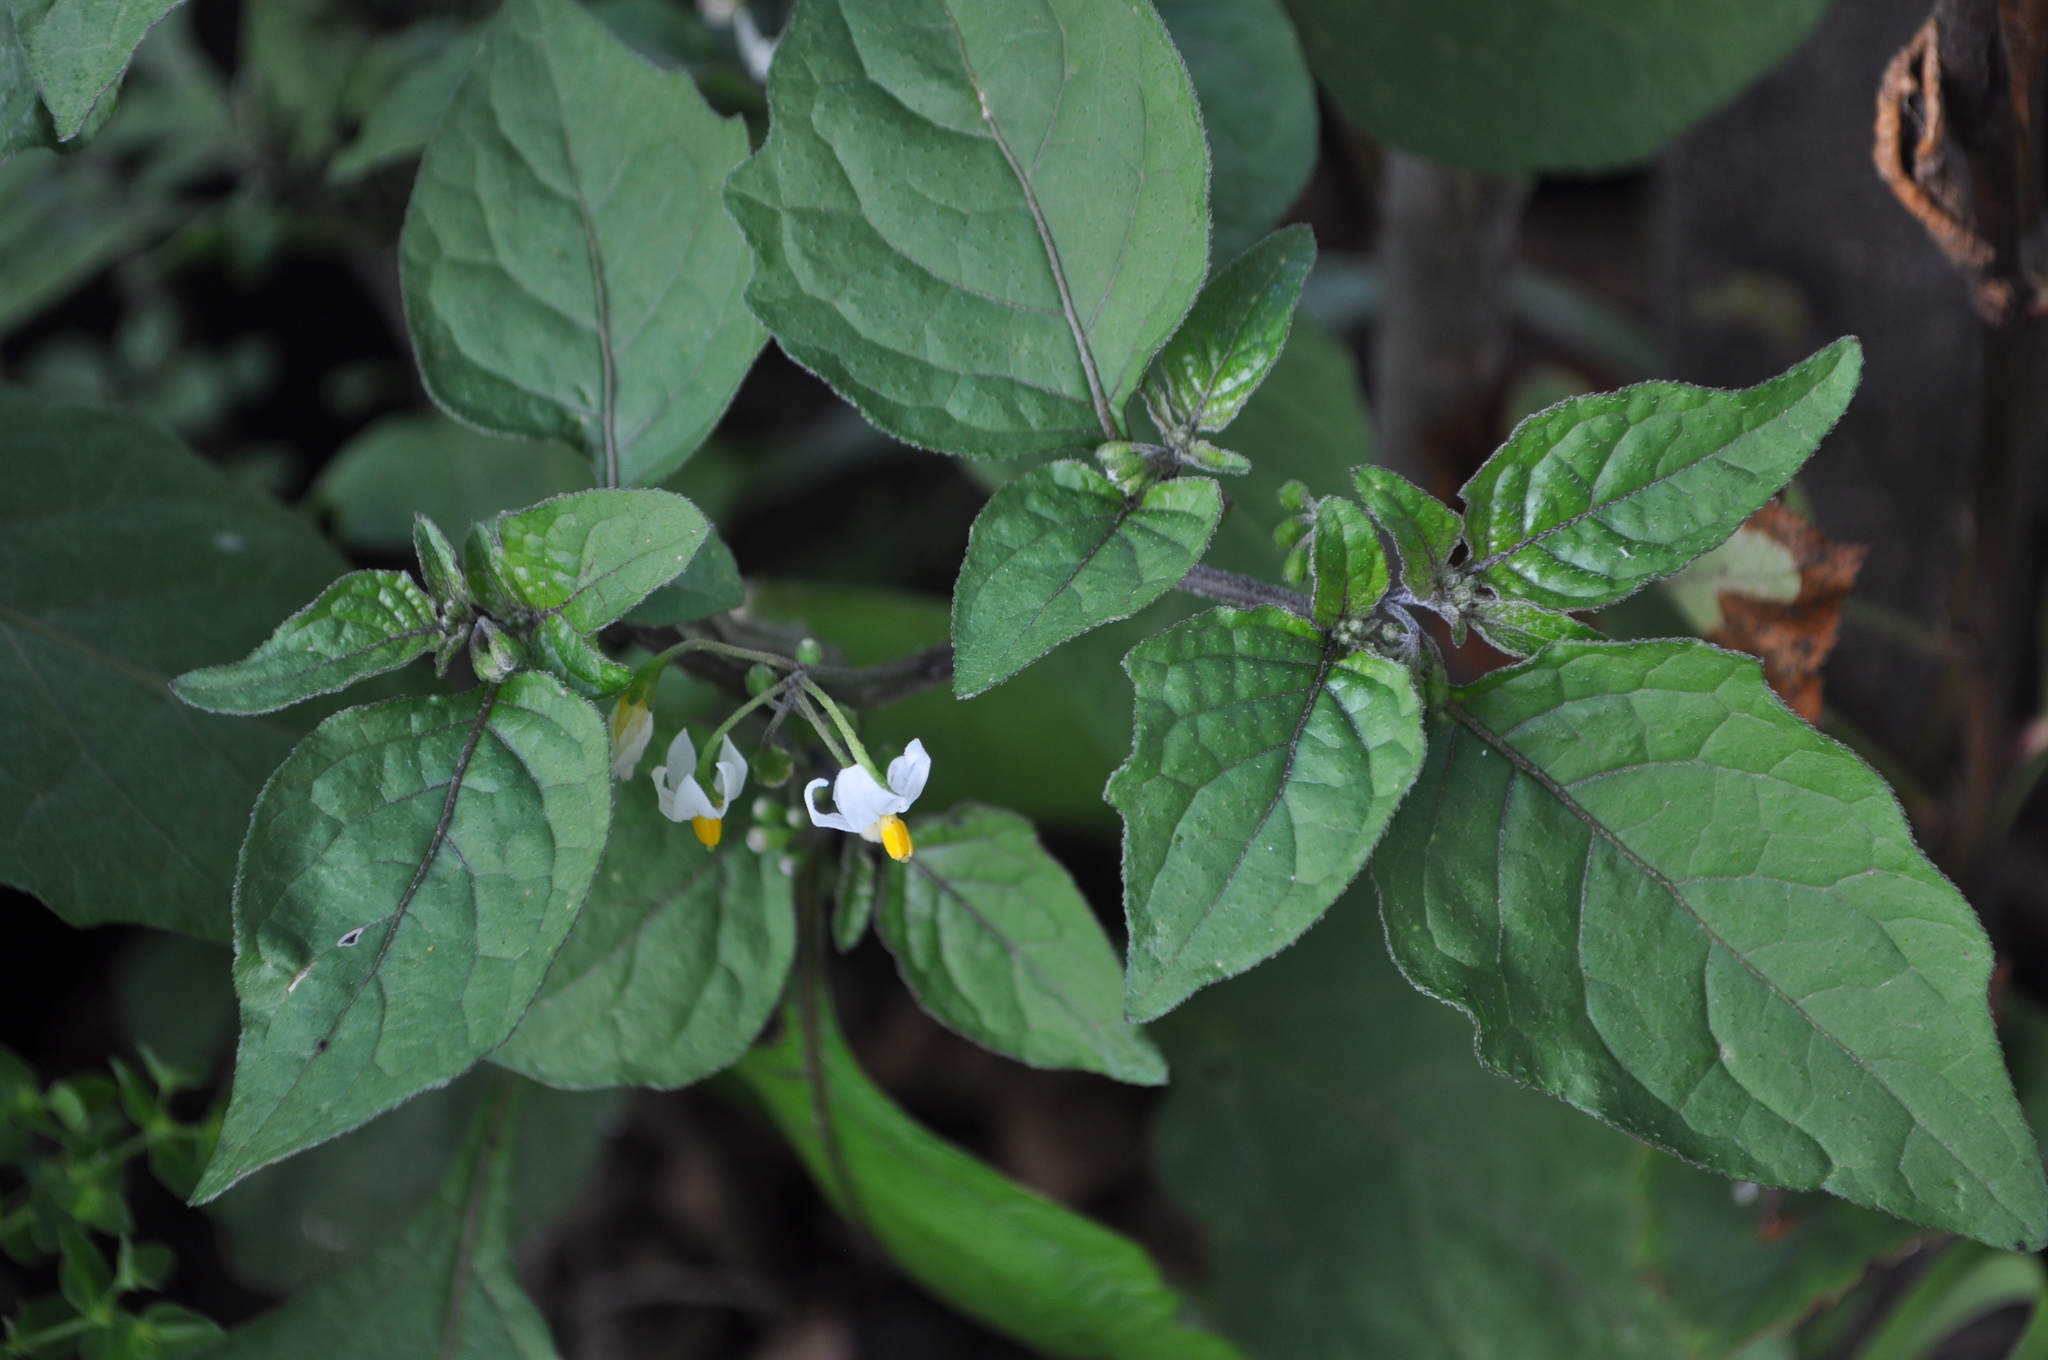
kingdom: Plantae
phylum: Tracheophyta
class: Magnoliopsida
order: Solanales
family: Solanaceae
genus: Solanum
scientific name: Solanum nigrum
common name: Black nightshade
